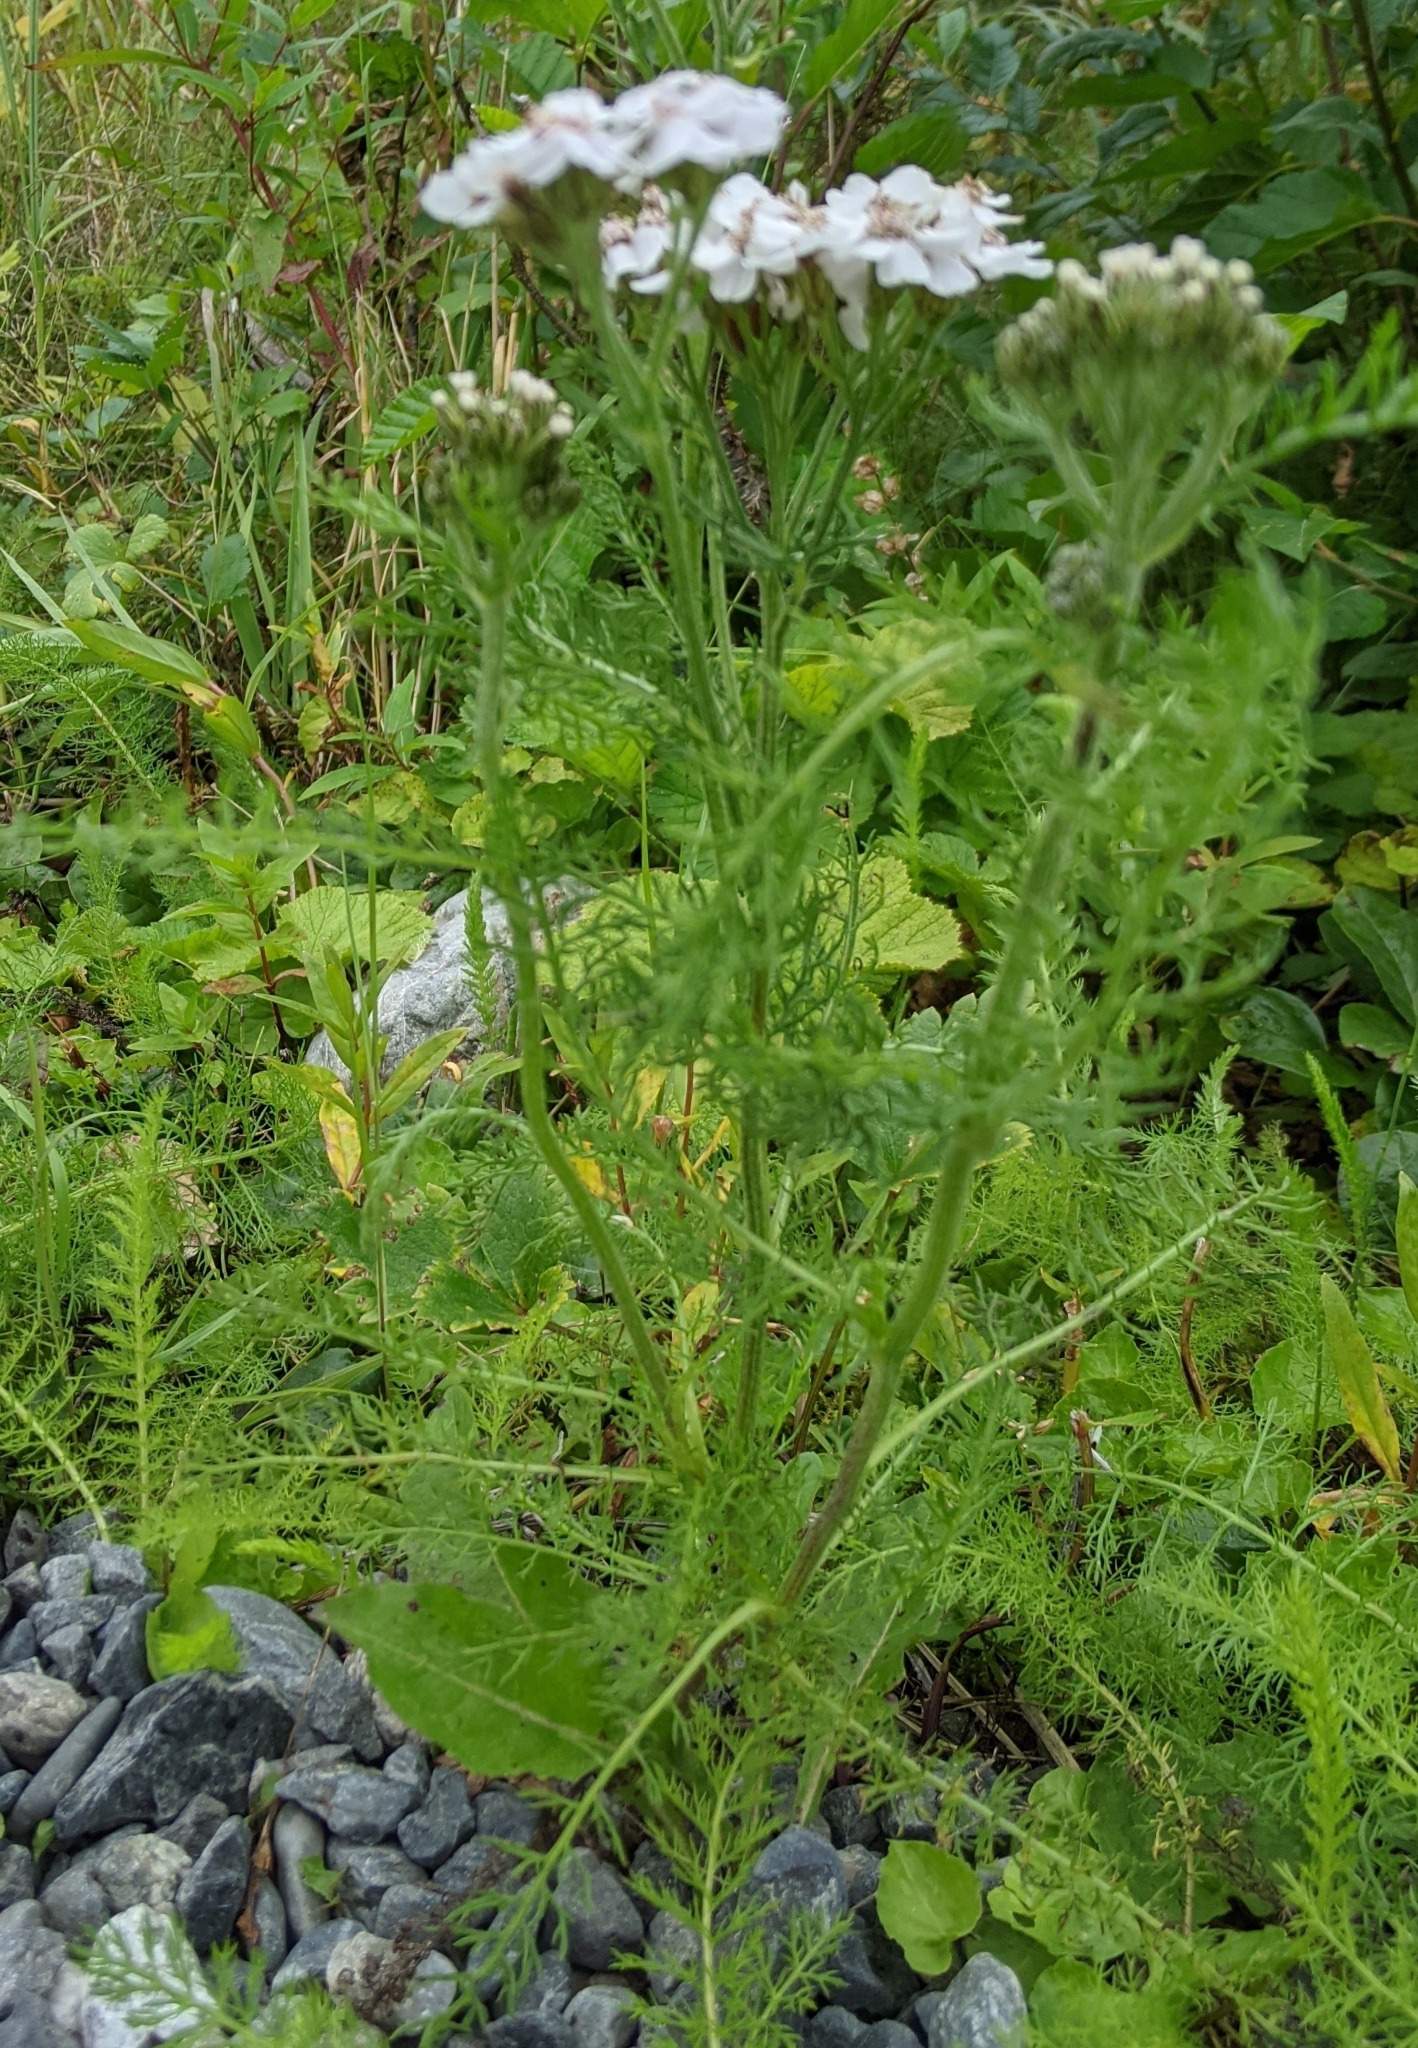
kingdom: Plantae
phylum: Tracheophyta
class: Magnoliopsida
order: Asterales
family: Asteraceae
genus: Achillea
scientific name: Achillea millefolium
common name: Yarrow
